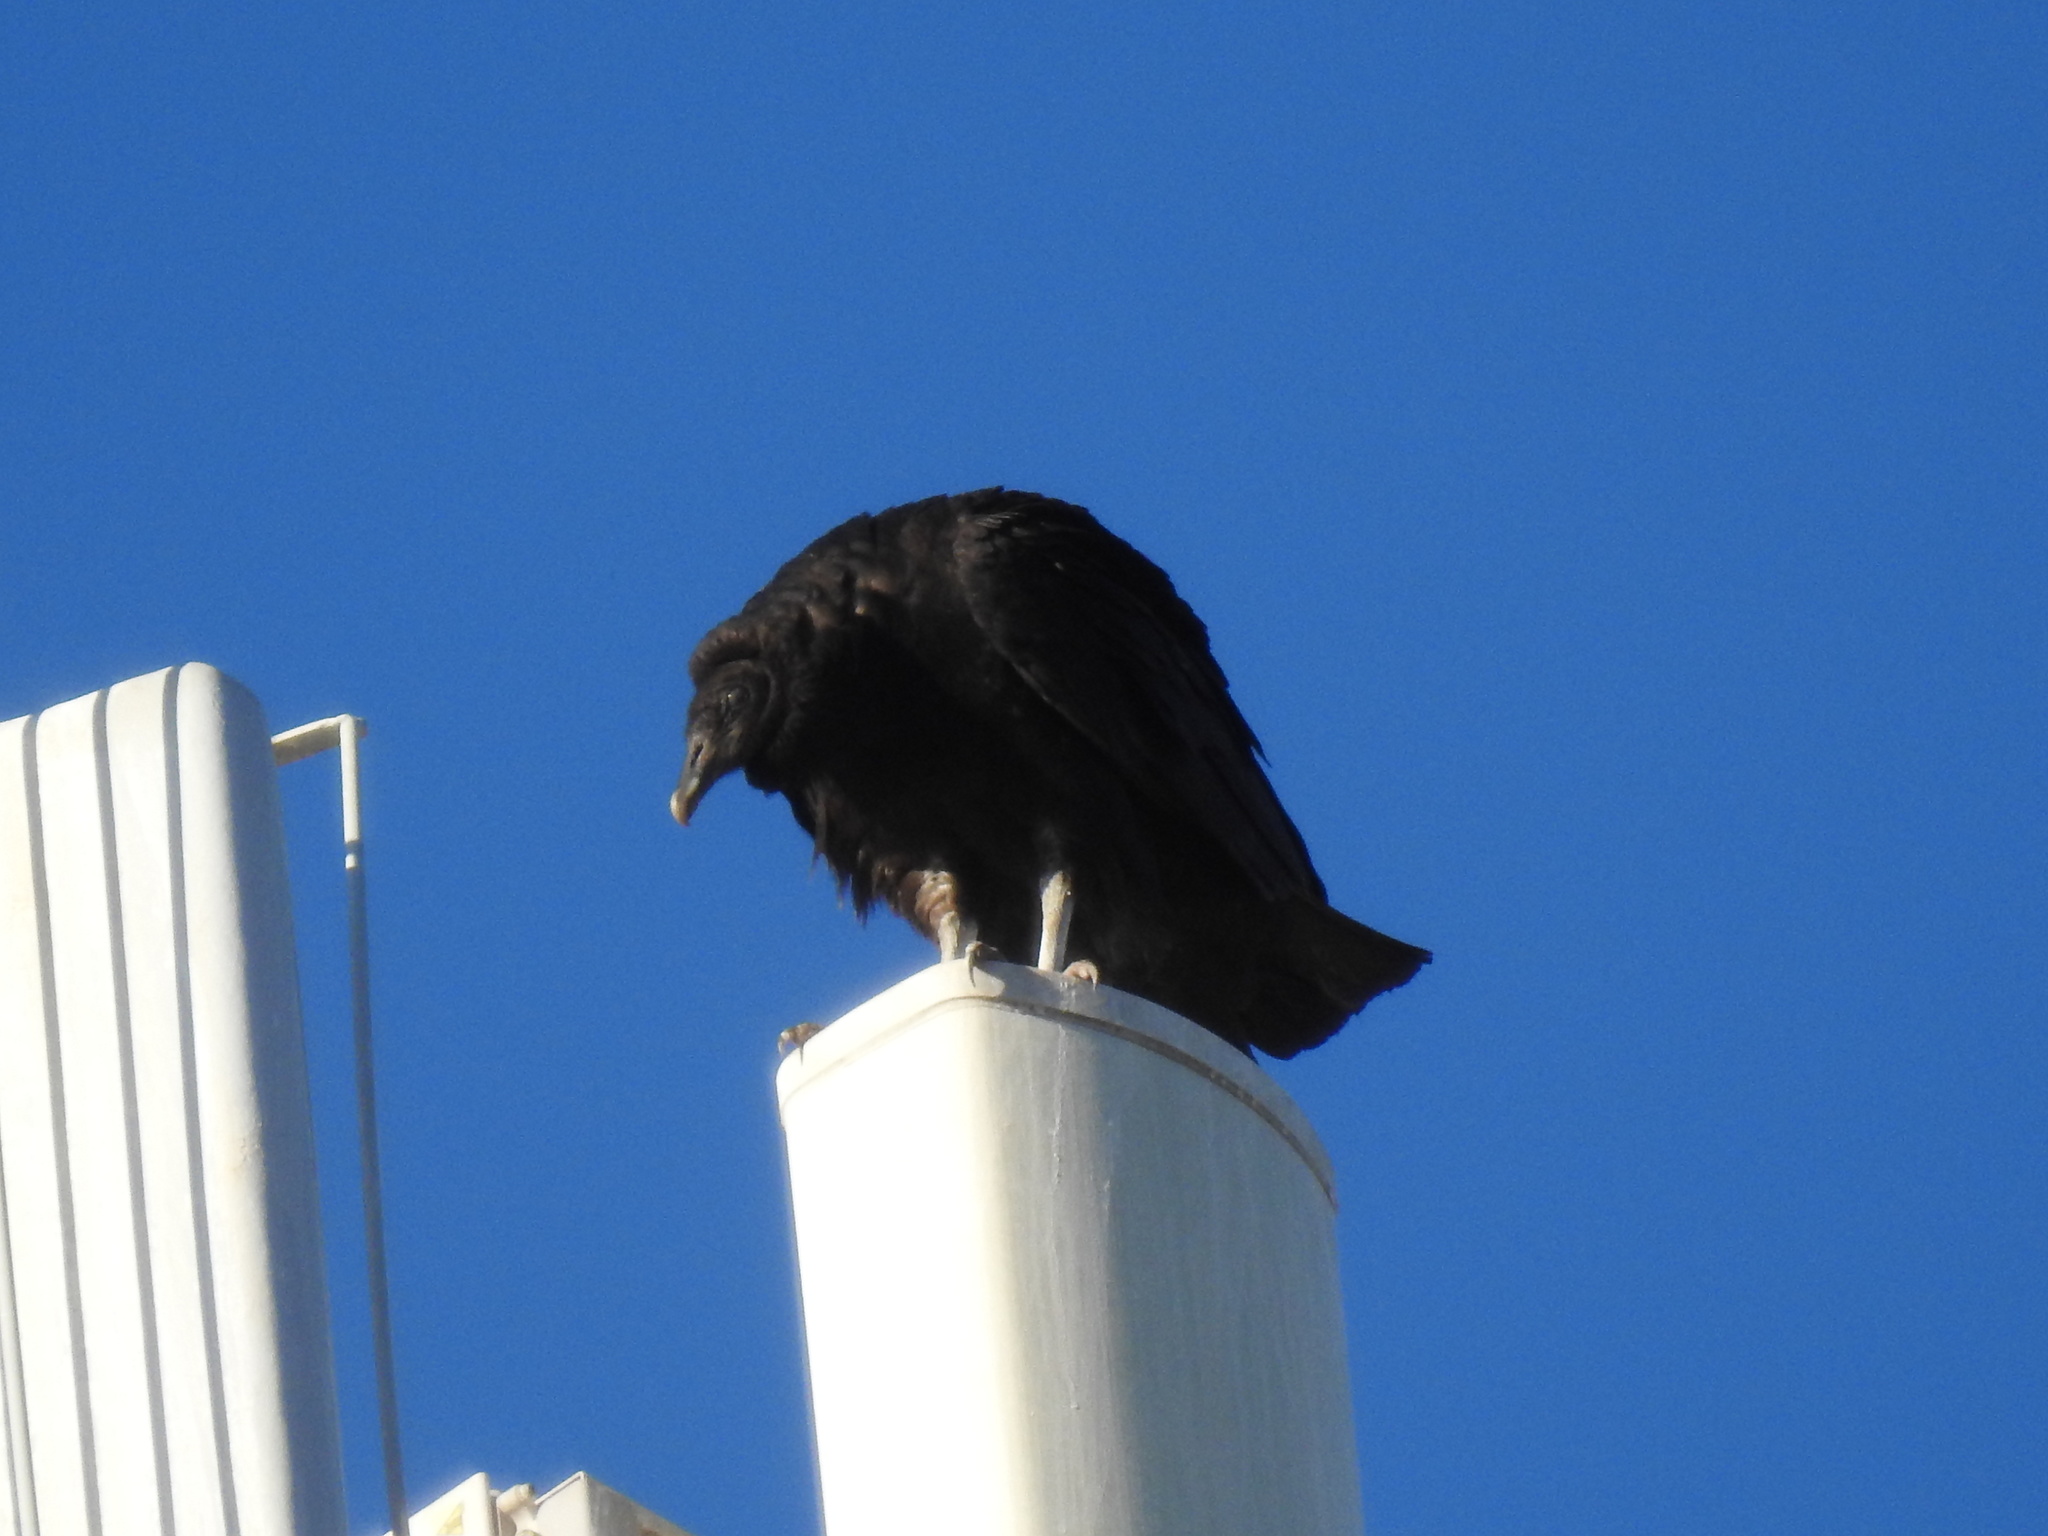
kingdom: Animalia
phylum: Chordata
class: Aves
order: Accipitriformes
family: Cathartidae
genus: Coragyps
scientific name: Coragyps atratus
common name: Black vulture
